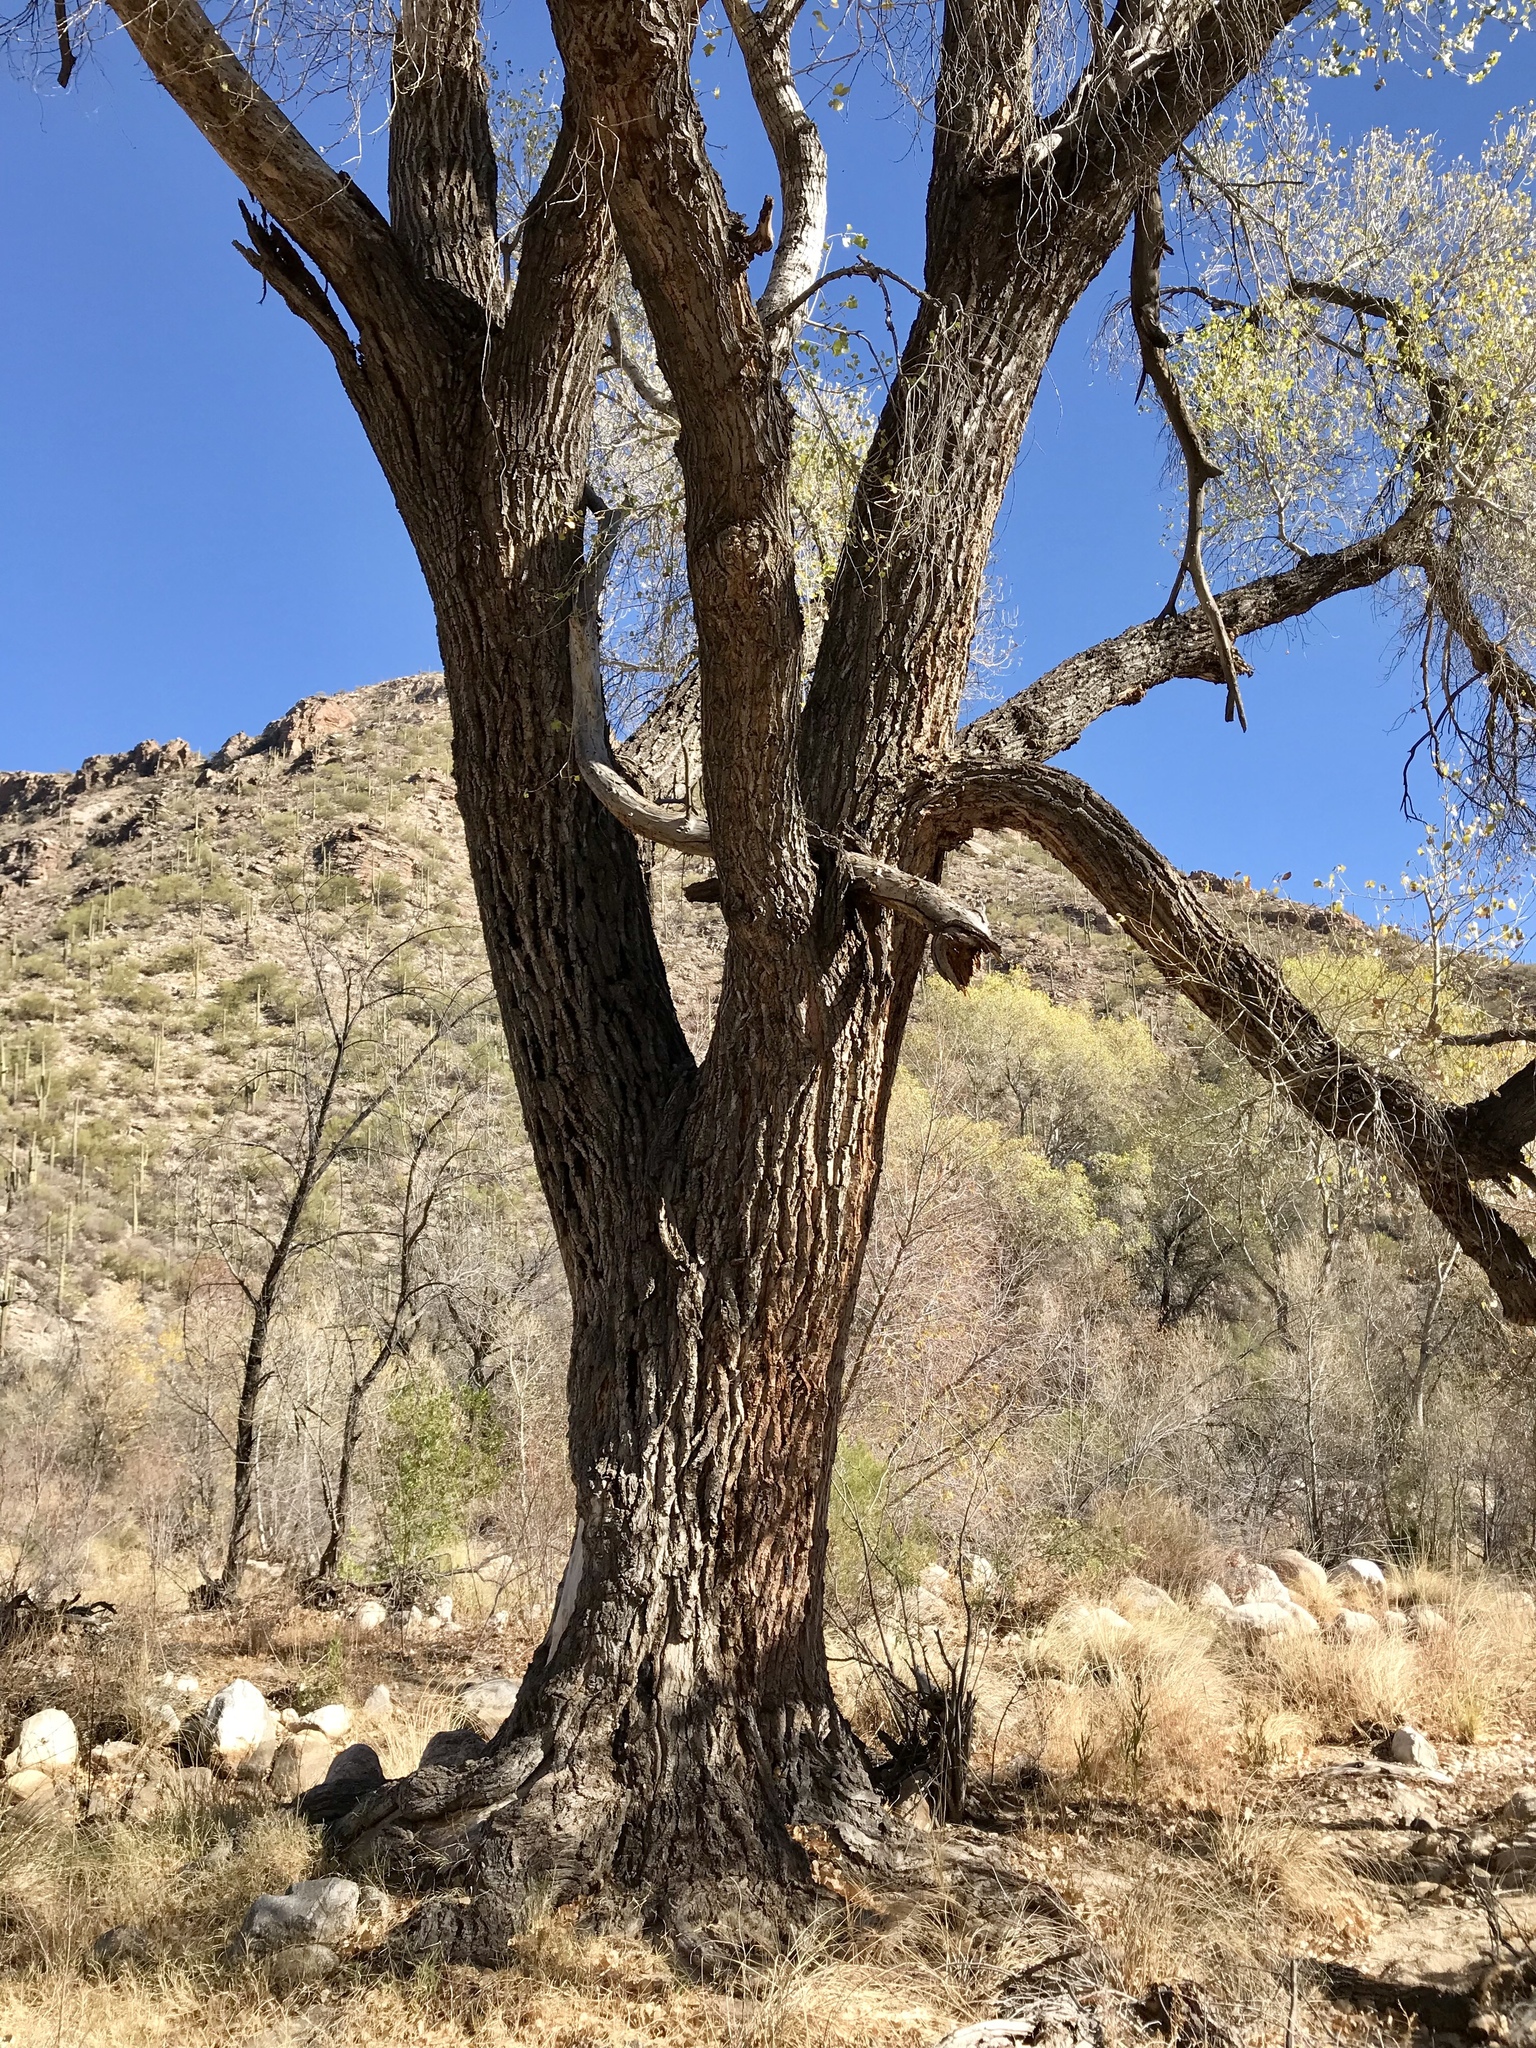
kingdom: Plantae
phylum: Tracheophyta
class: Magnoliopsida
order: Malpighiales
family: Salicaceae
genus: Populus
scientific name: Populus fremontii
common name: Fremont's cottonwood
